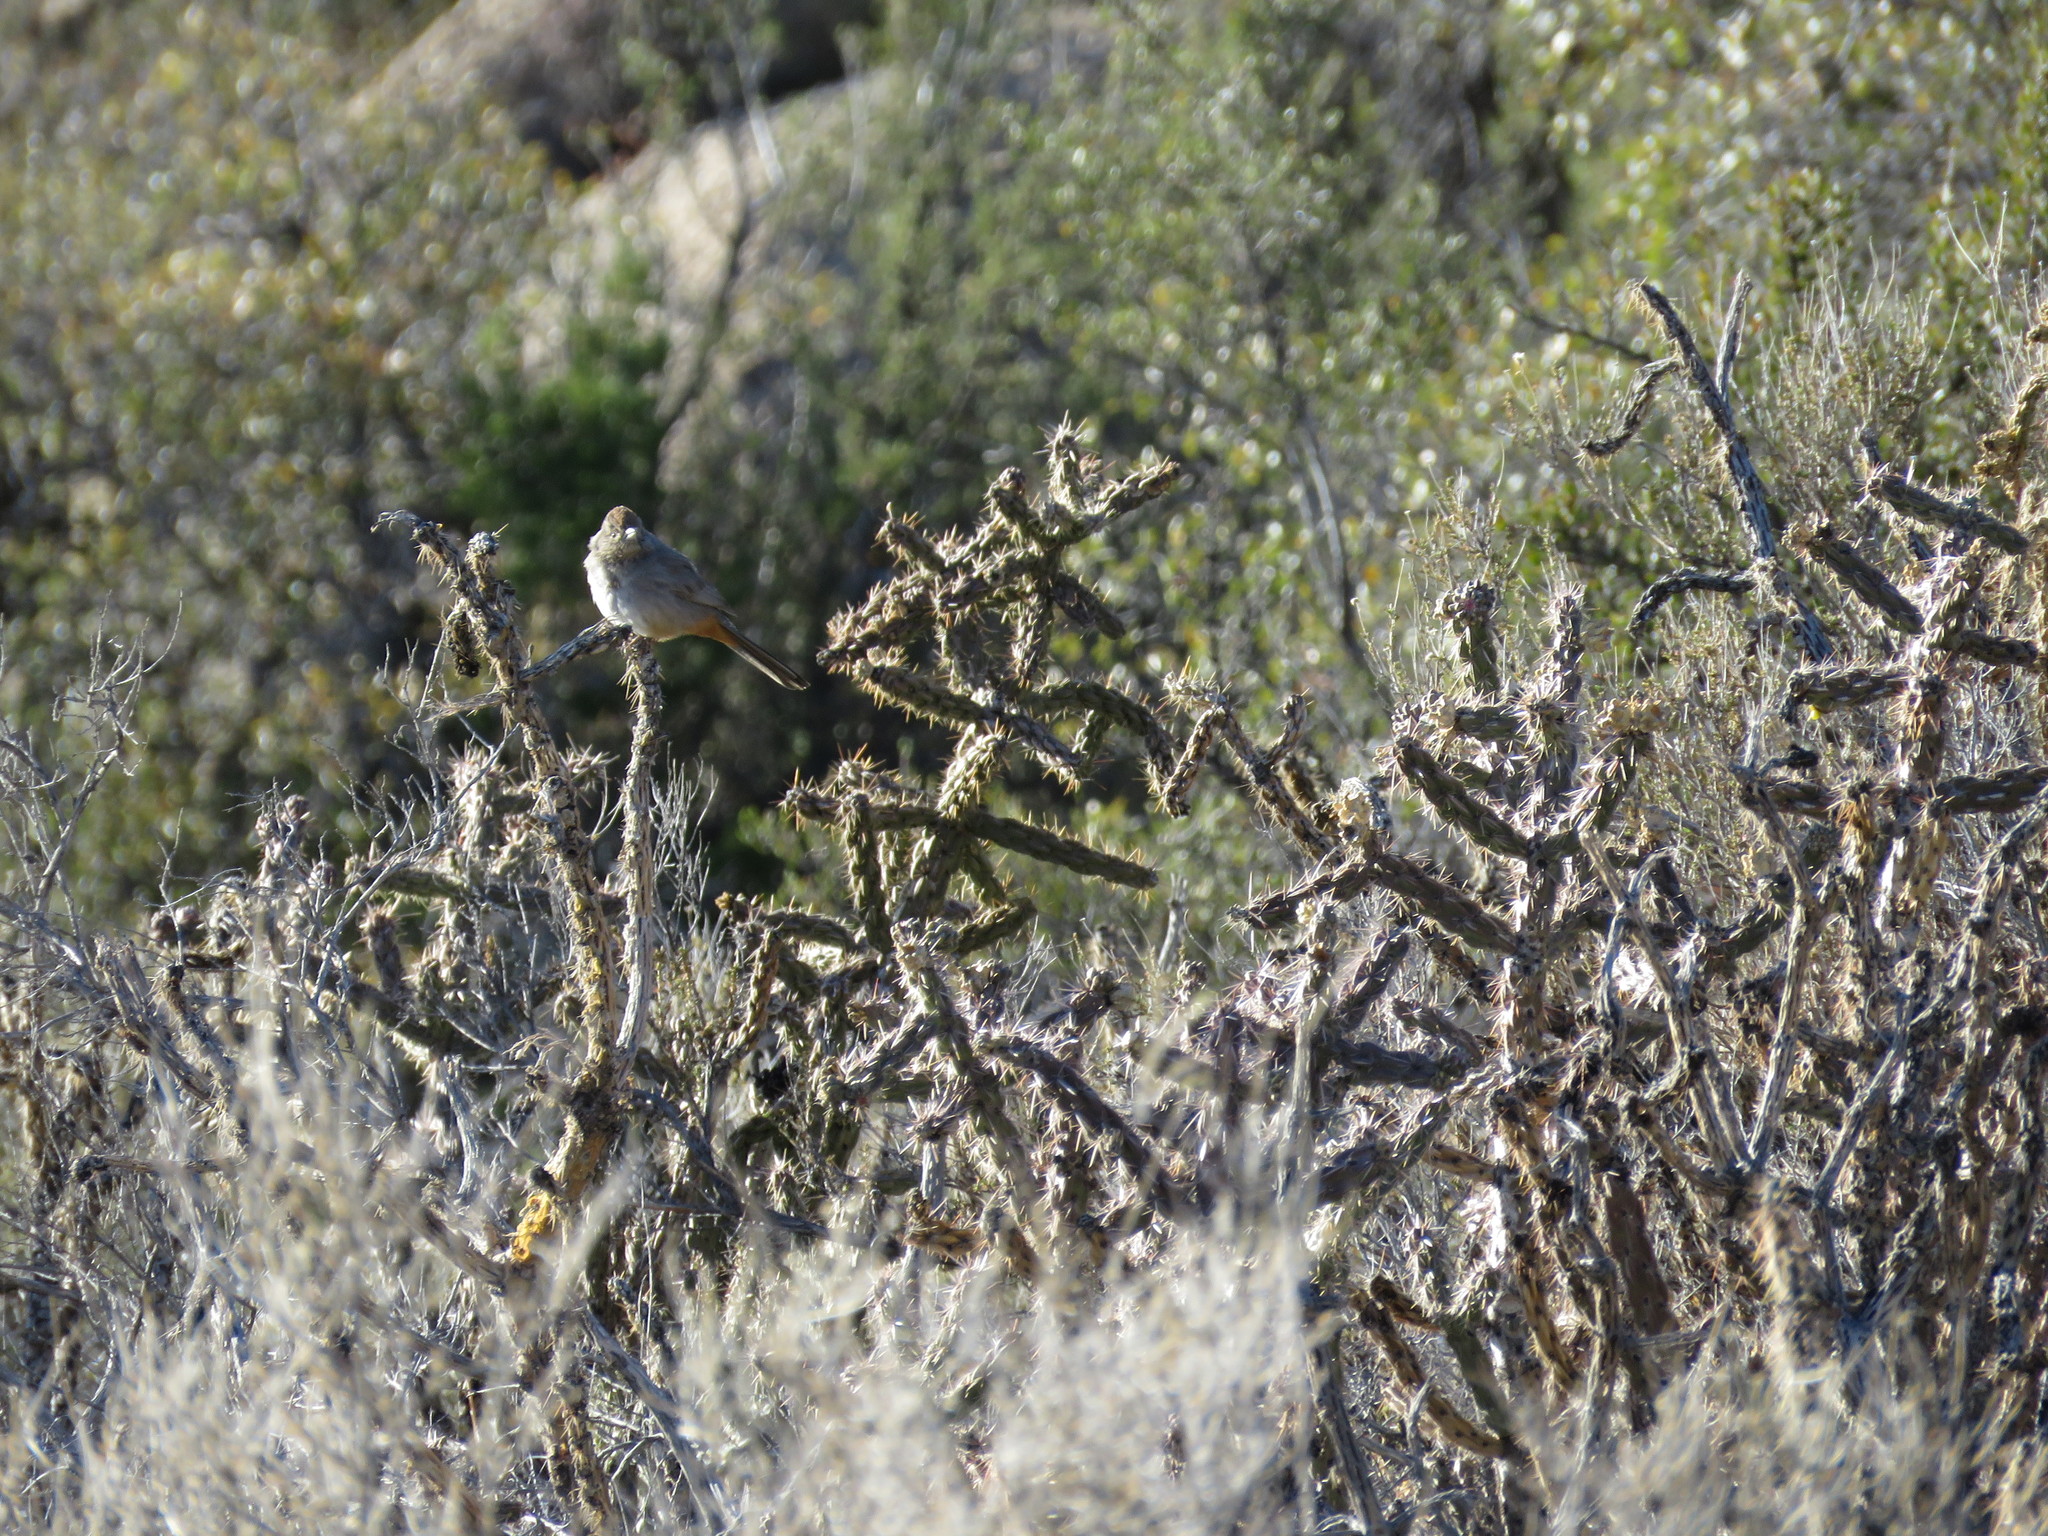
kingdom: Animalia
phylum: Chordata
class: Aves
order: Passeriformes
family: Passerellidae
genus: Melozone
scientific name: Melozone fusca
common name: Canyon towhee
